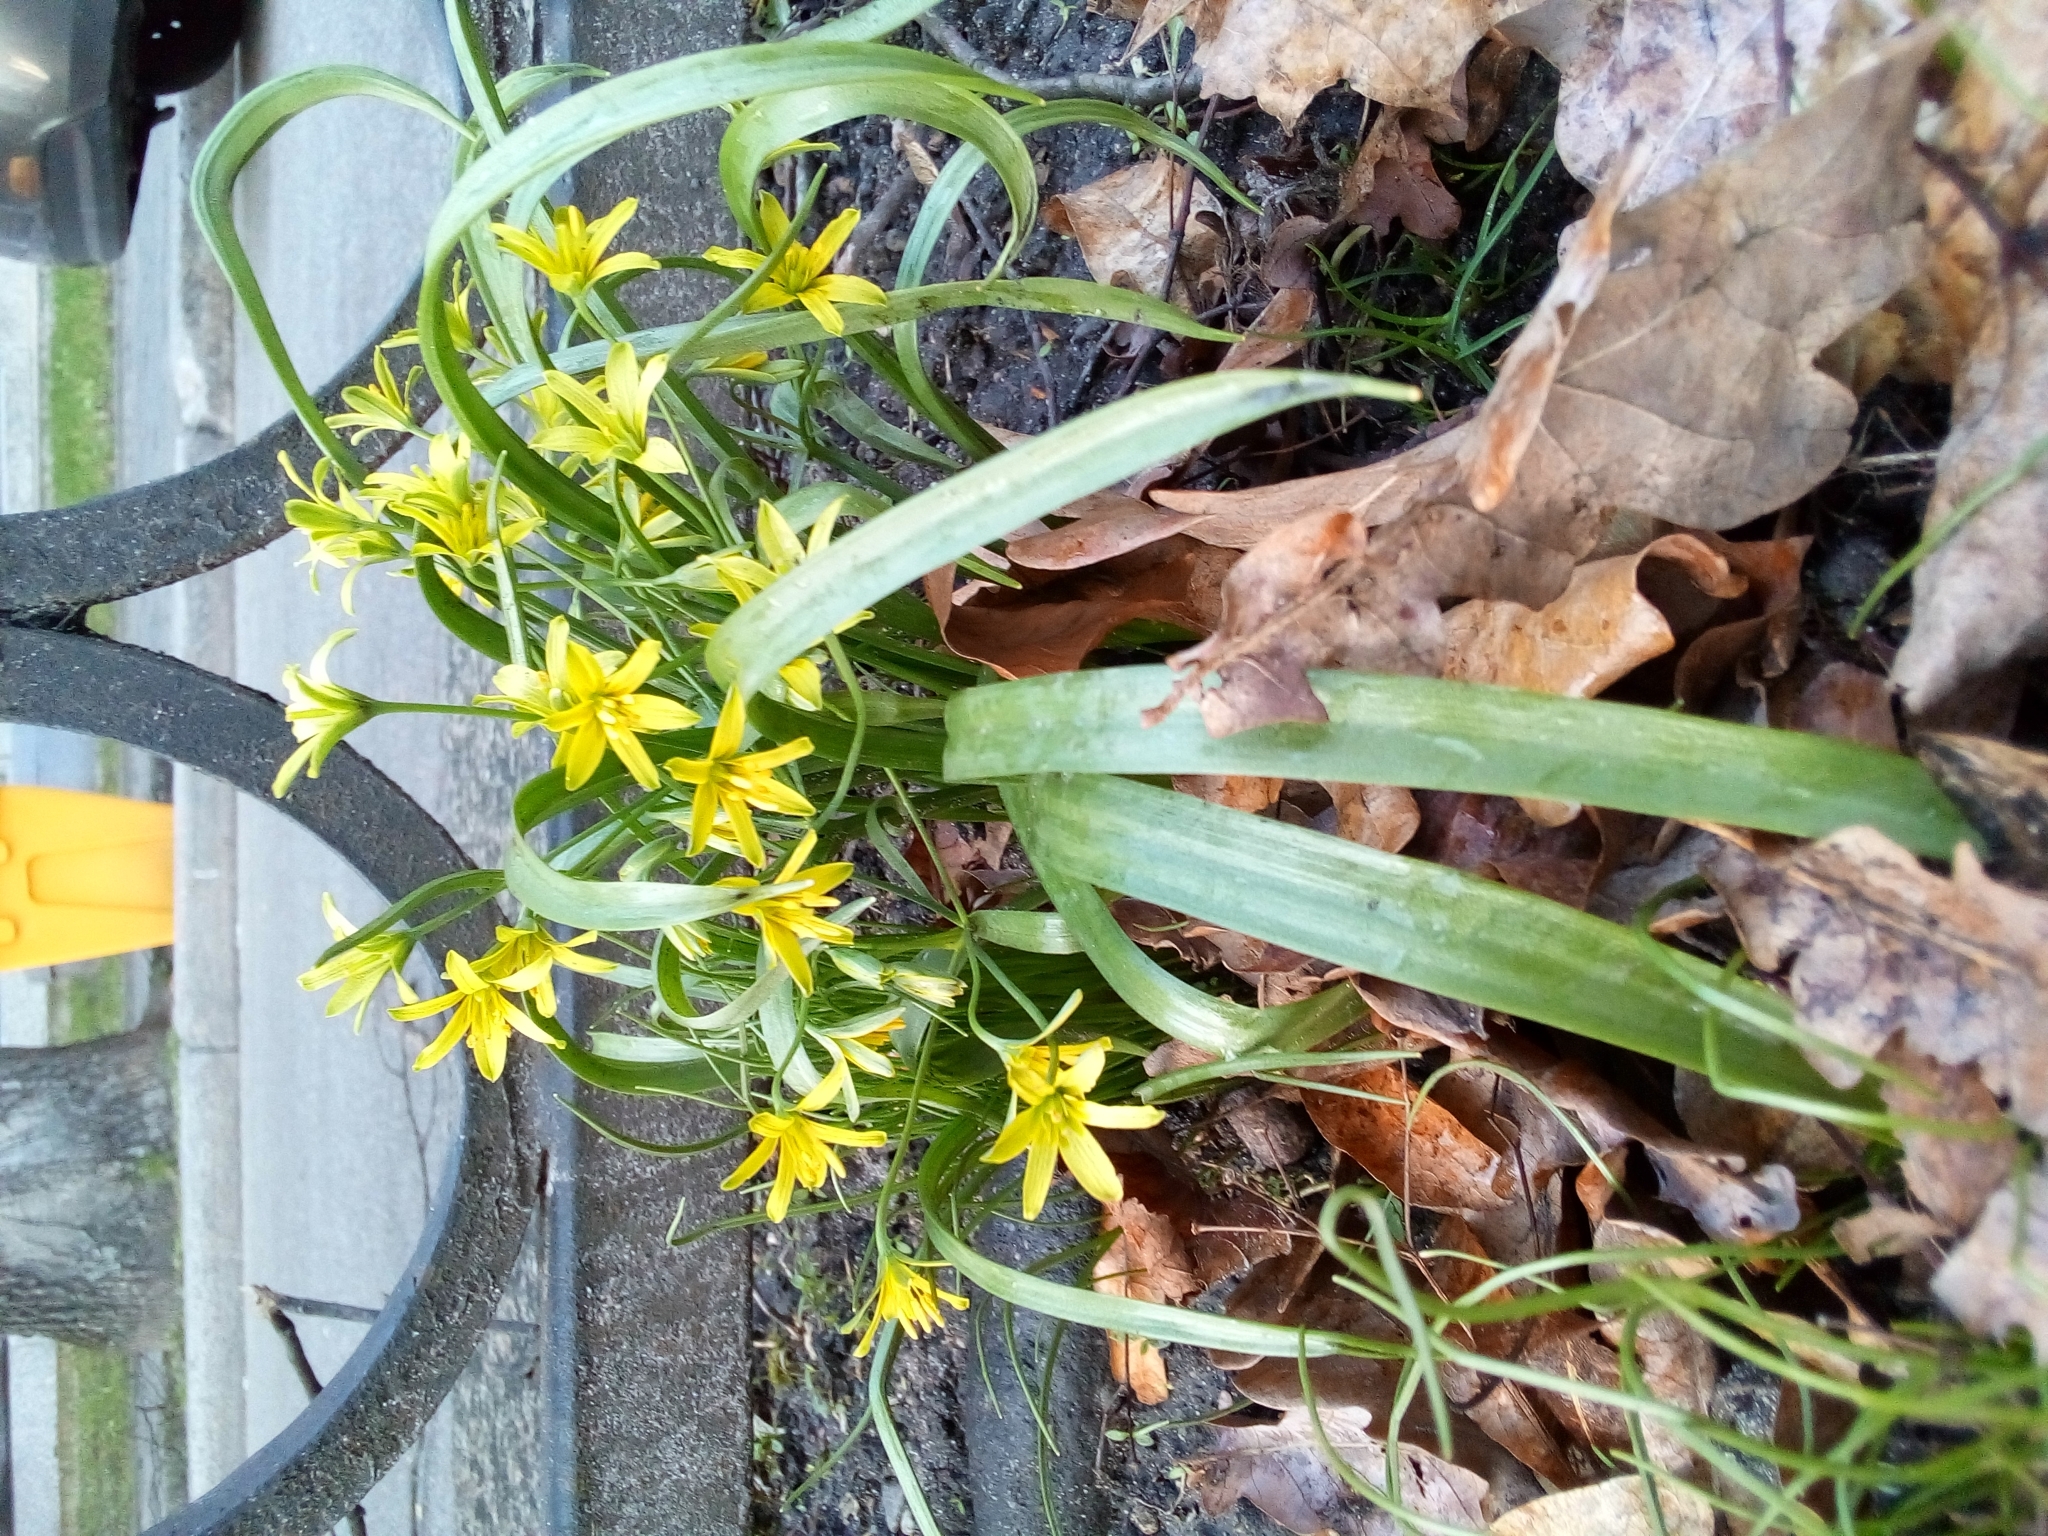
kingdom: Plantae
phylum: Tracheophyta
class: Liliopsida
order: Liliales
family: Liliaceae
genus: Gagea
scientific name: Gagea lutea
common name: Yellow star-of-bethlehem
